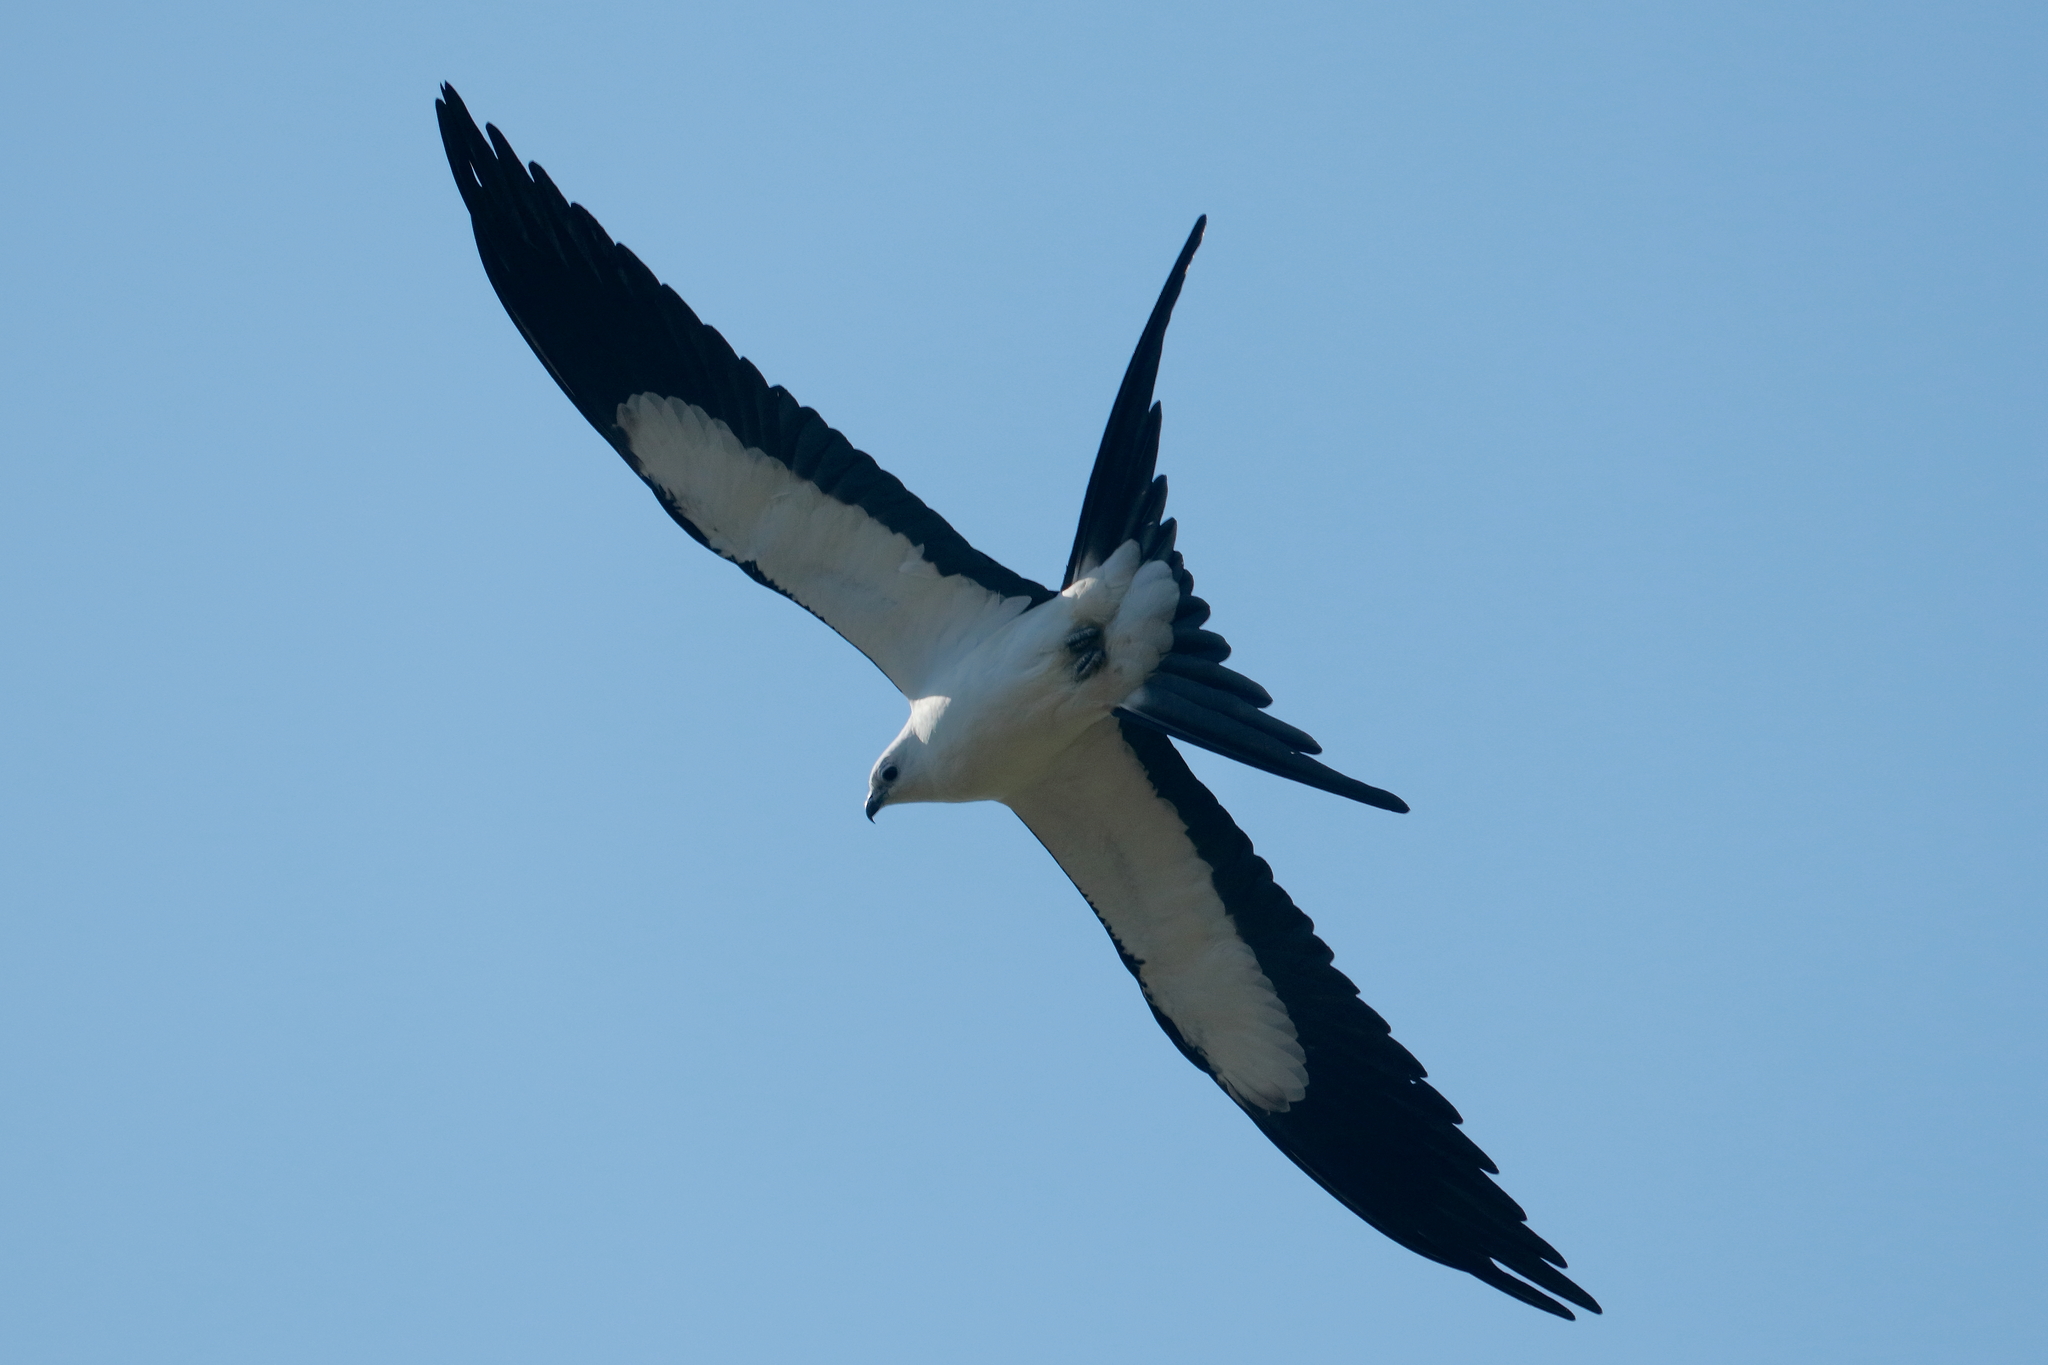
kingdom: Animalia
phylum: Chordata
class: Aves
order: Accipitriformes
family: Accipitridae
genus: Elanoides
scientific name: Elanoides forficatus
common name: Swallow-tailed kite
